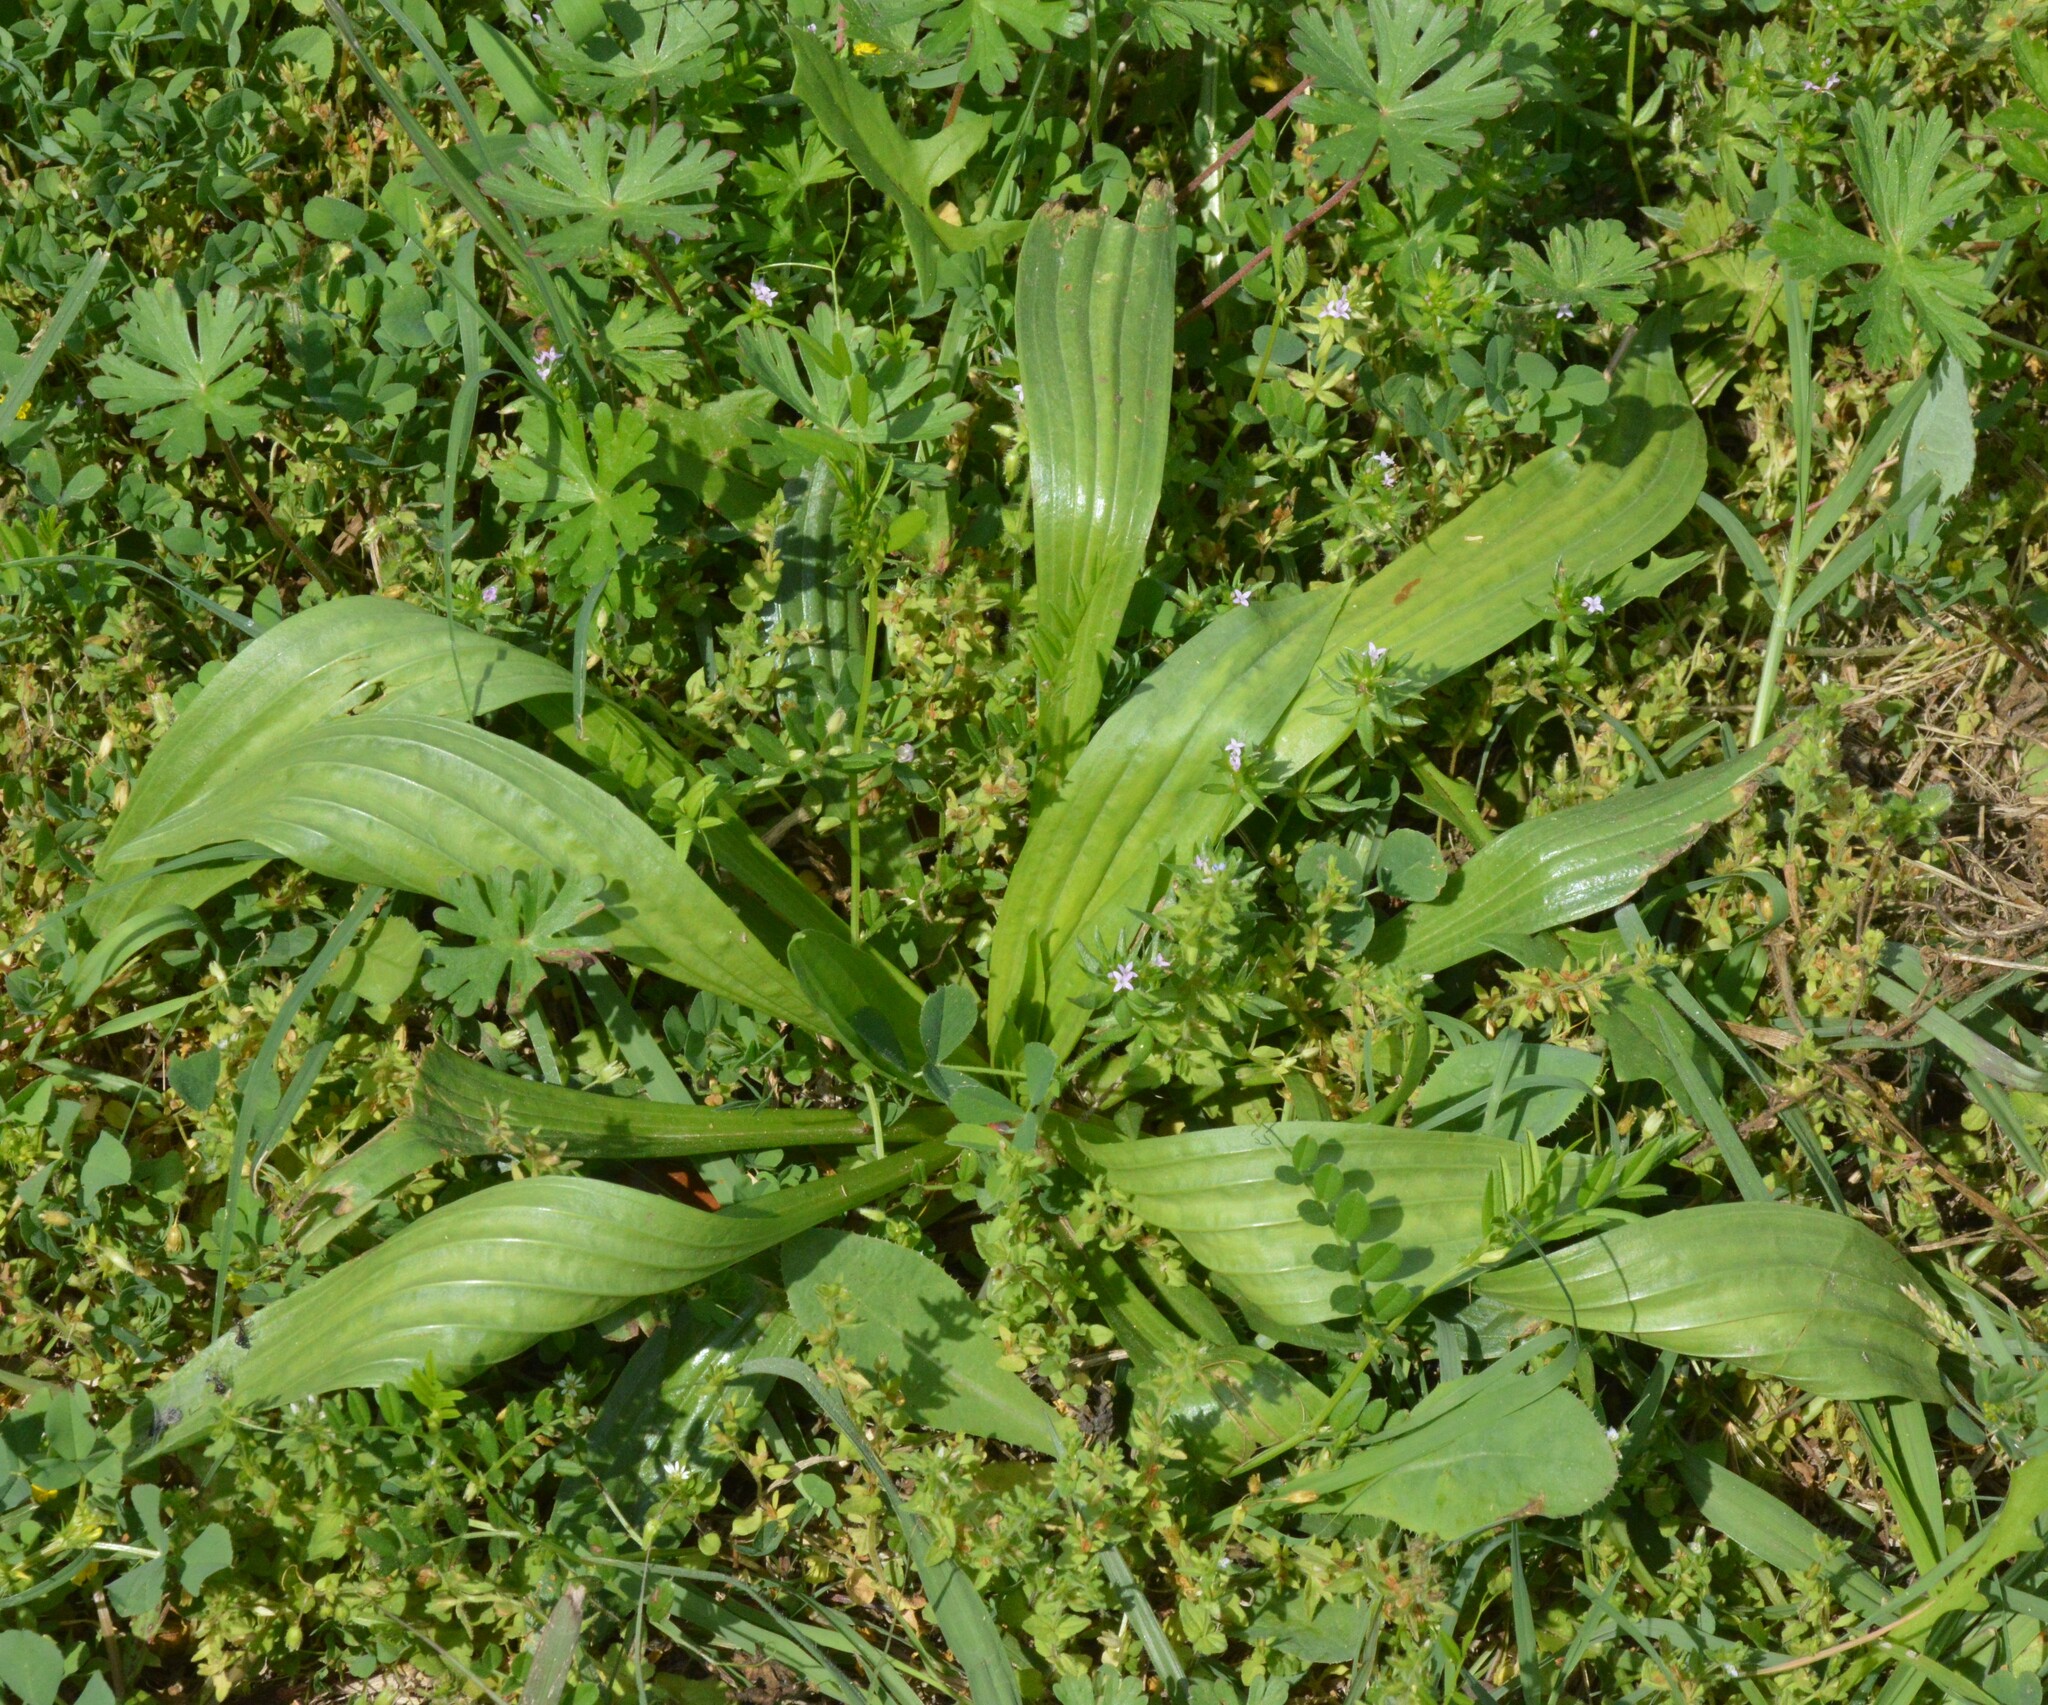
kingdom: Plantae
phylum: Tracheophyta
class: Magnoliopsida
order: Lamiales
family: Plantaginaceae
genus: Plantago
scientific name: Plantago lanceolata
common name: Ribwort plantain
